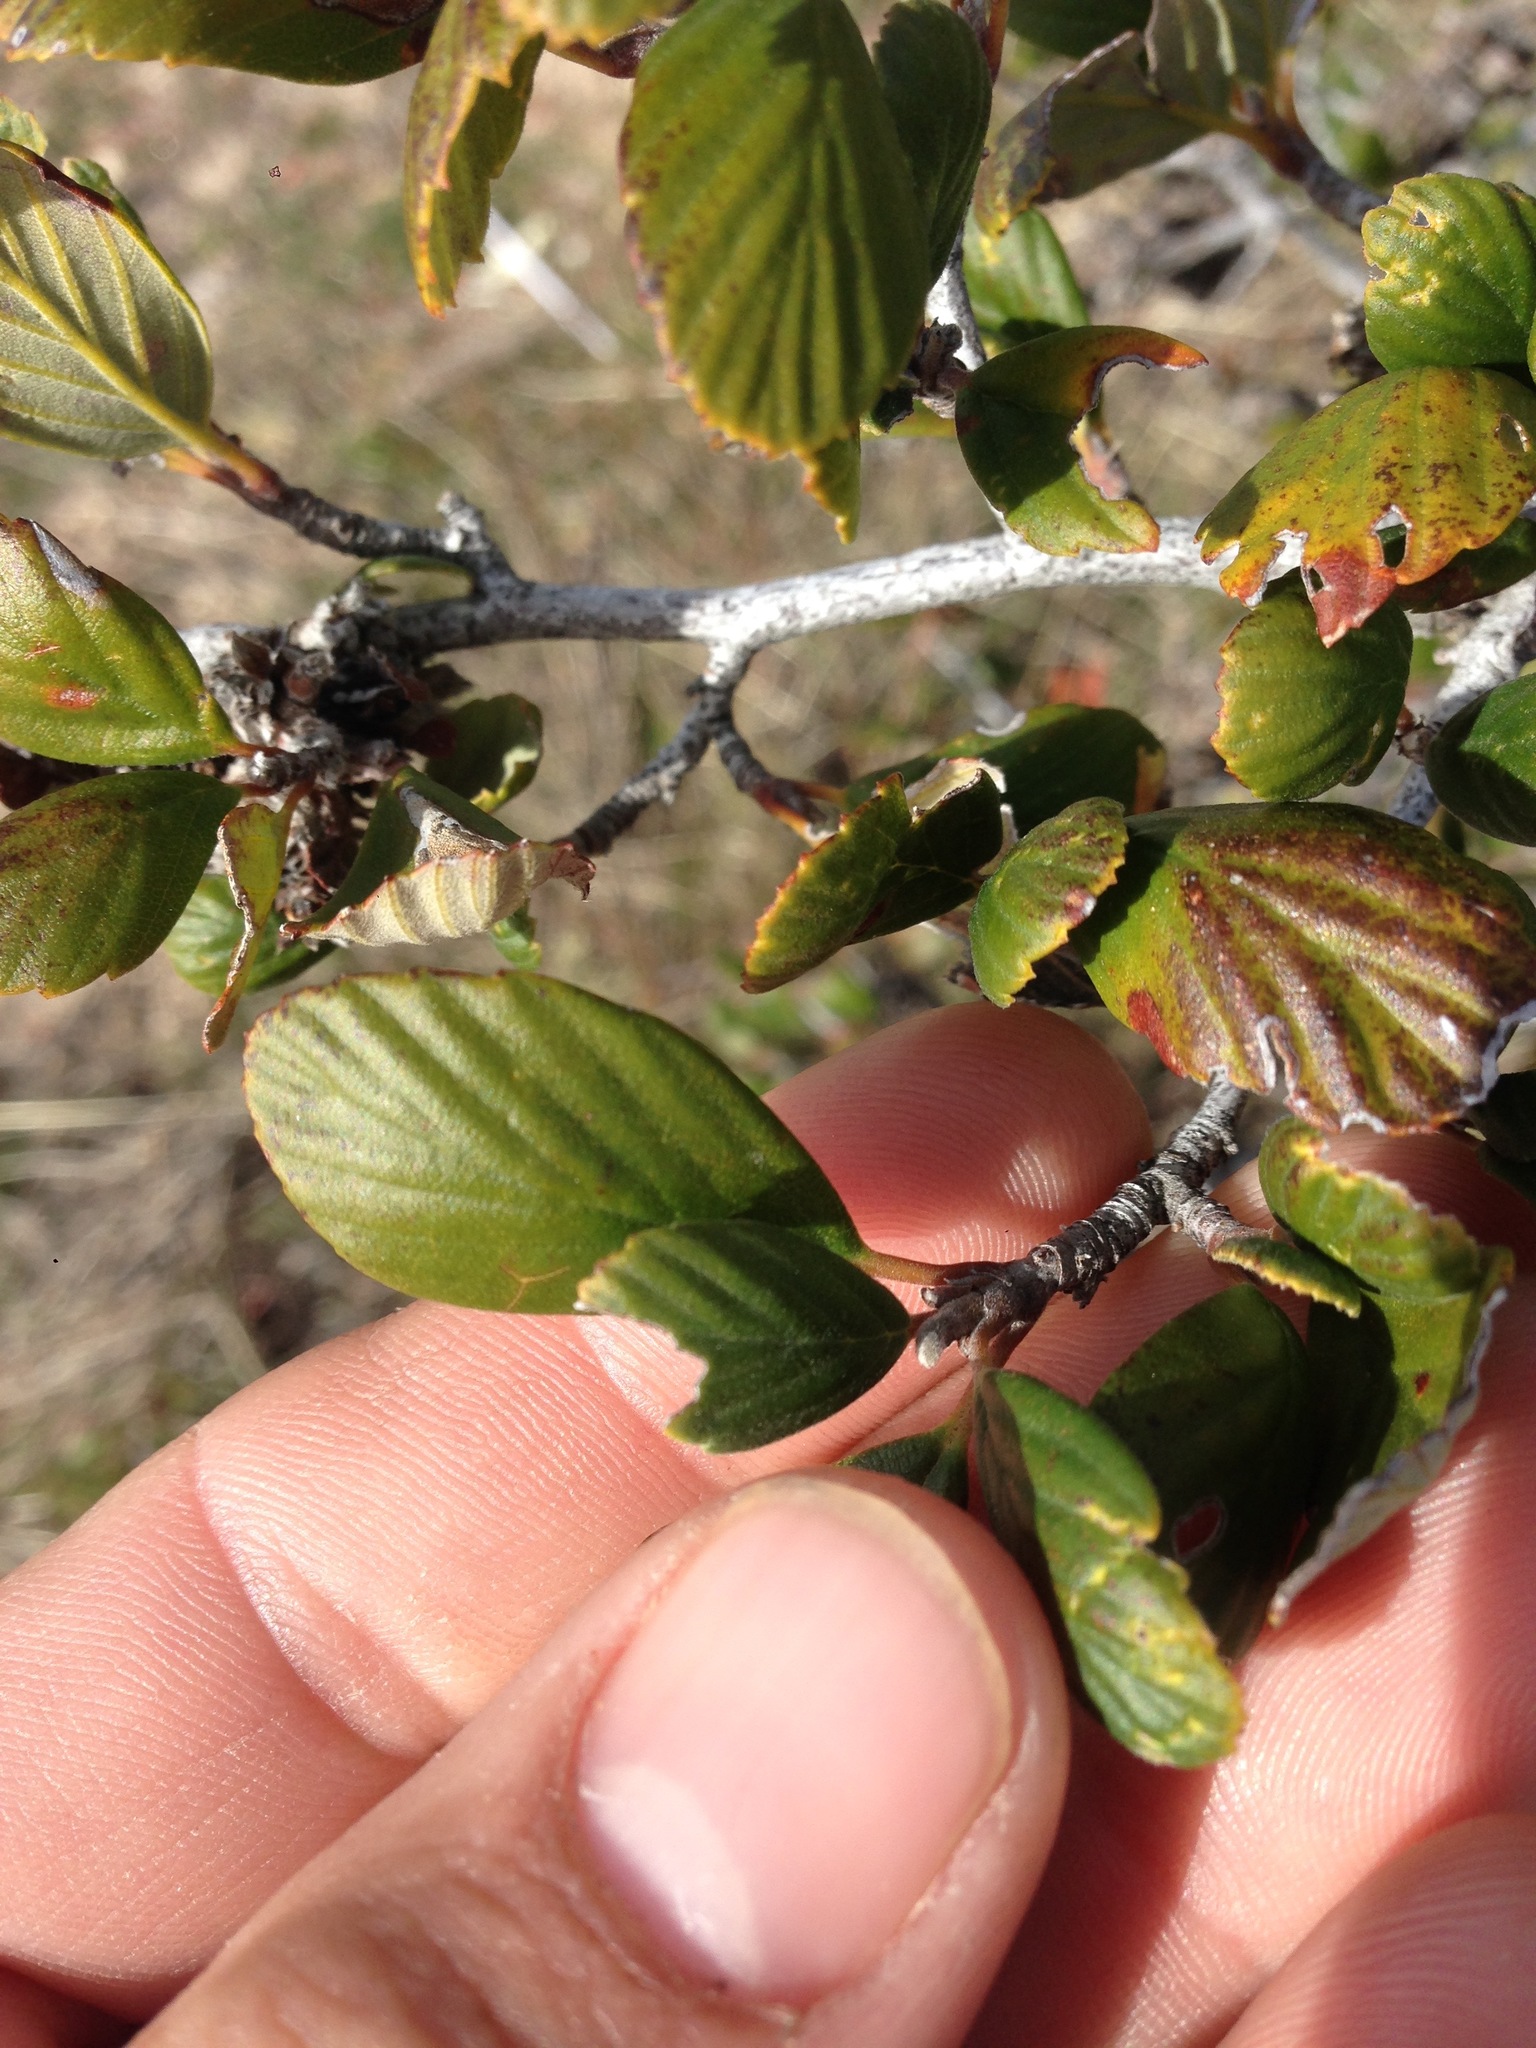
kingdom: Plantae
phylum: Tracheophyta
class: Magnoliopsida
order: Rosales
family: Rosaceae
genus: Cercocarpus
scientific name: Cercocarpus betuloides
